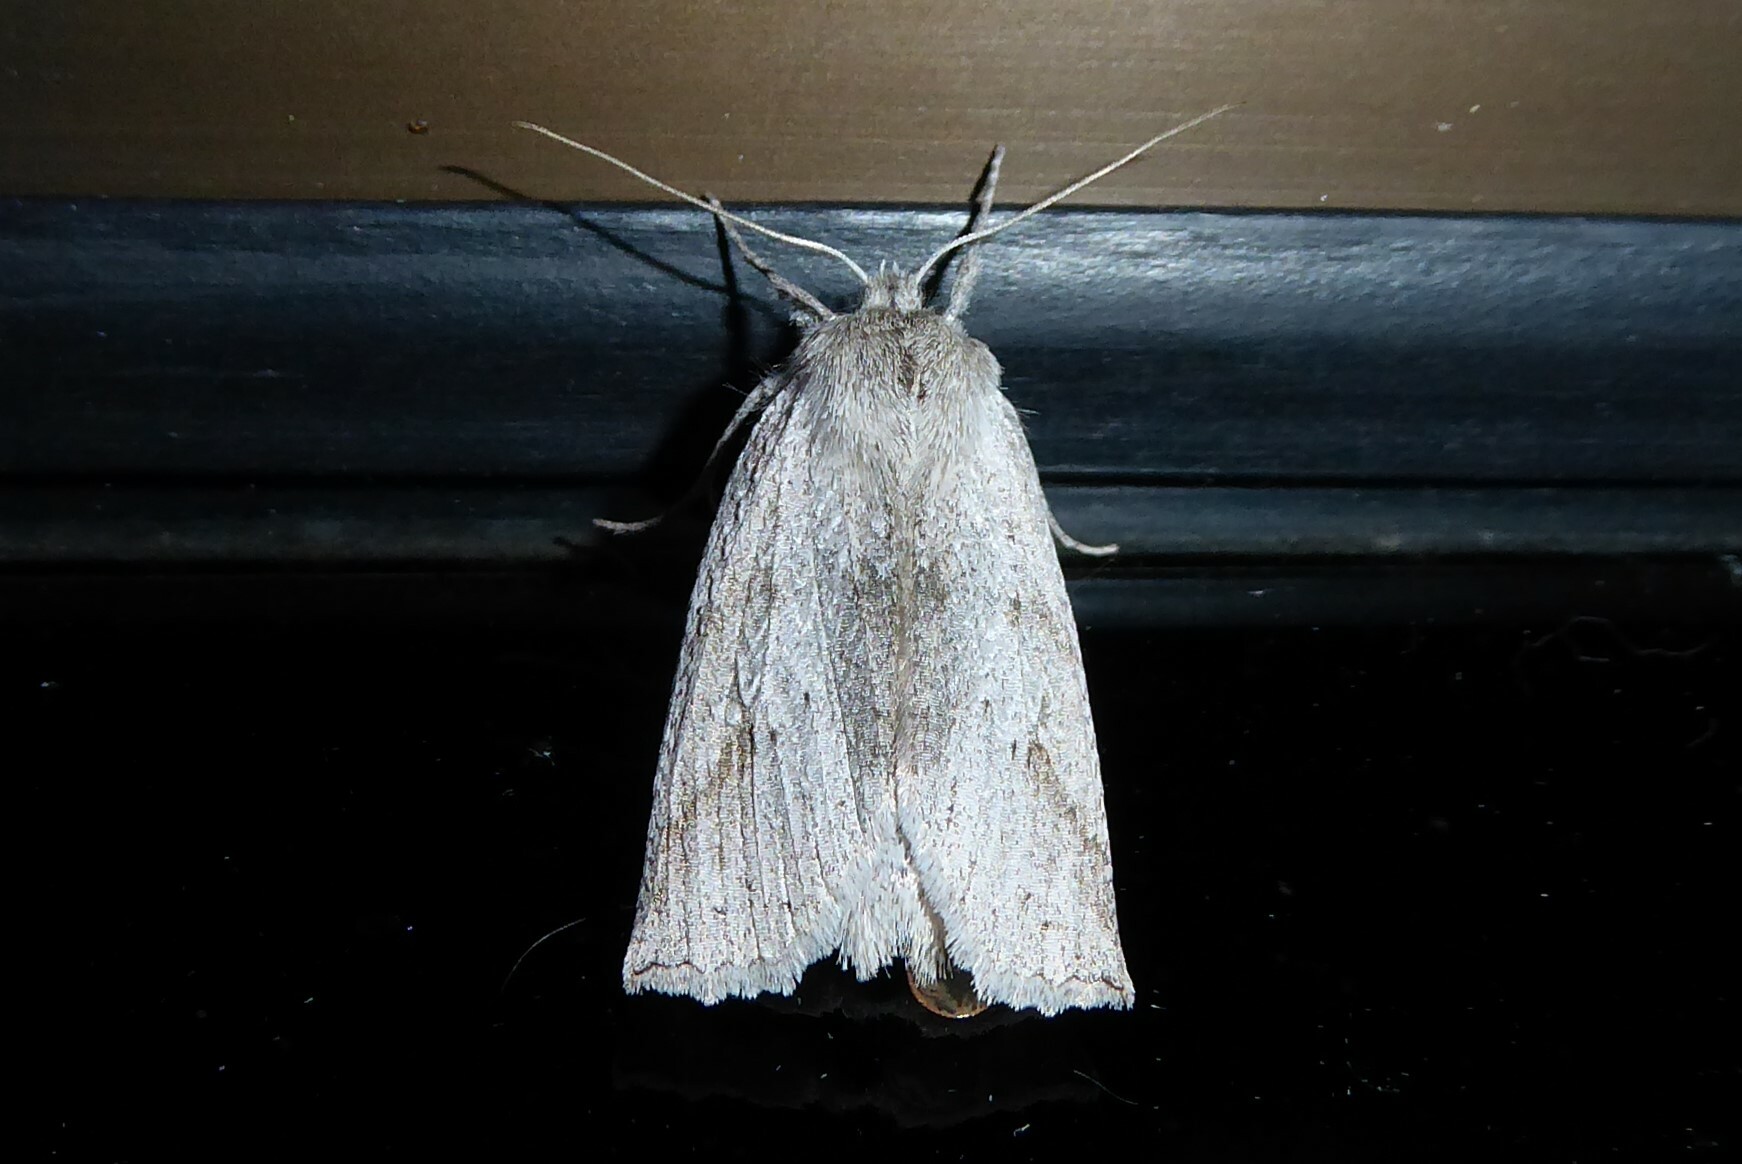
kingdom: Animalia
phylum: Arthropoda
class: Insecta
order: Lepidoptera
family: Geometridae
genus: Declana
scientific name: Declana leptomera
